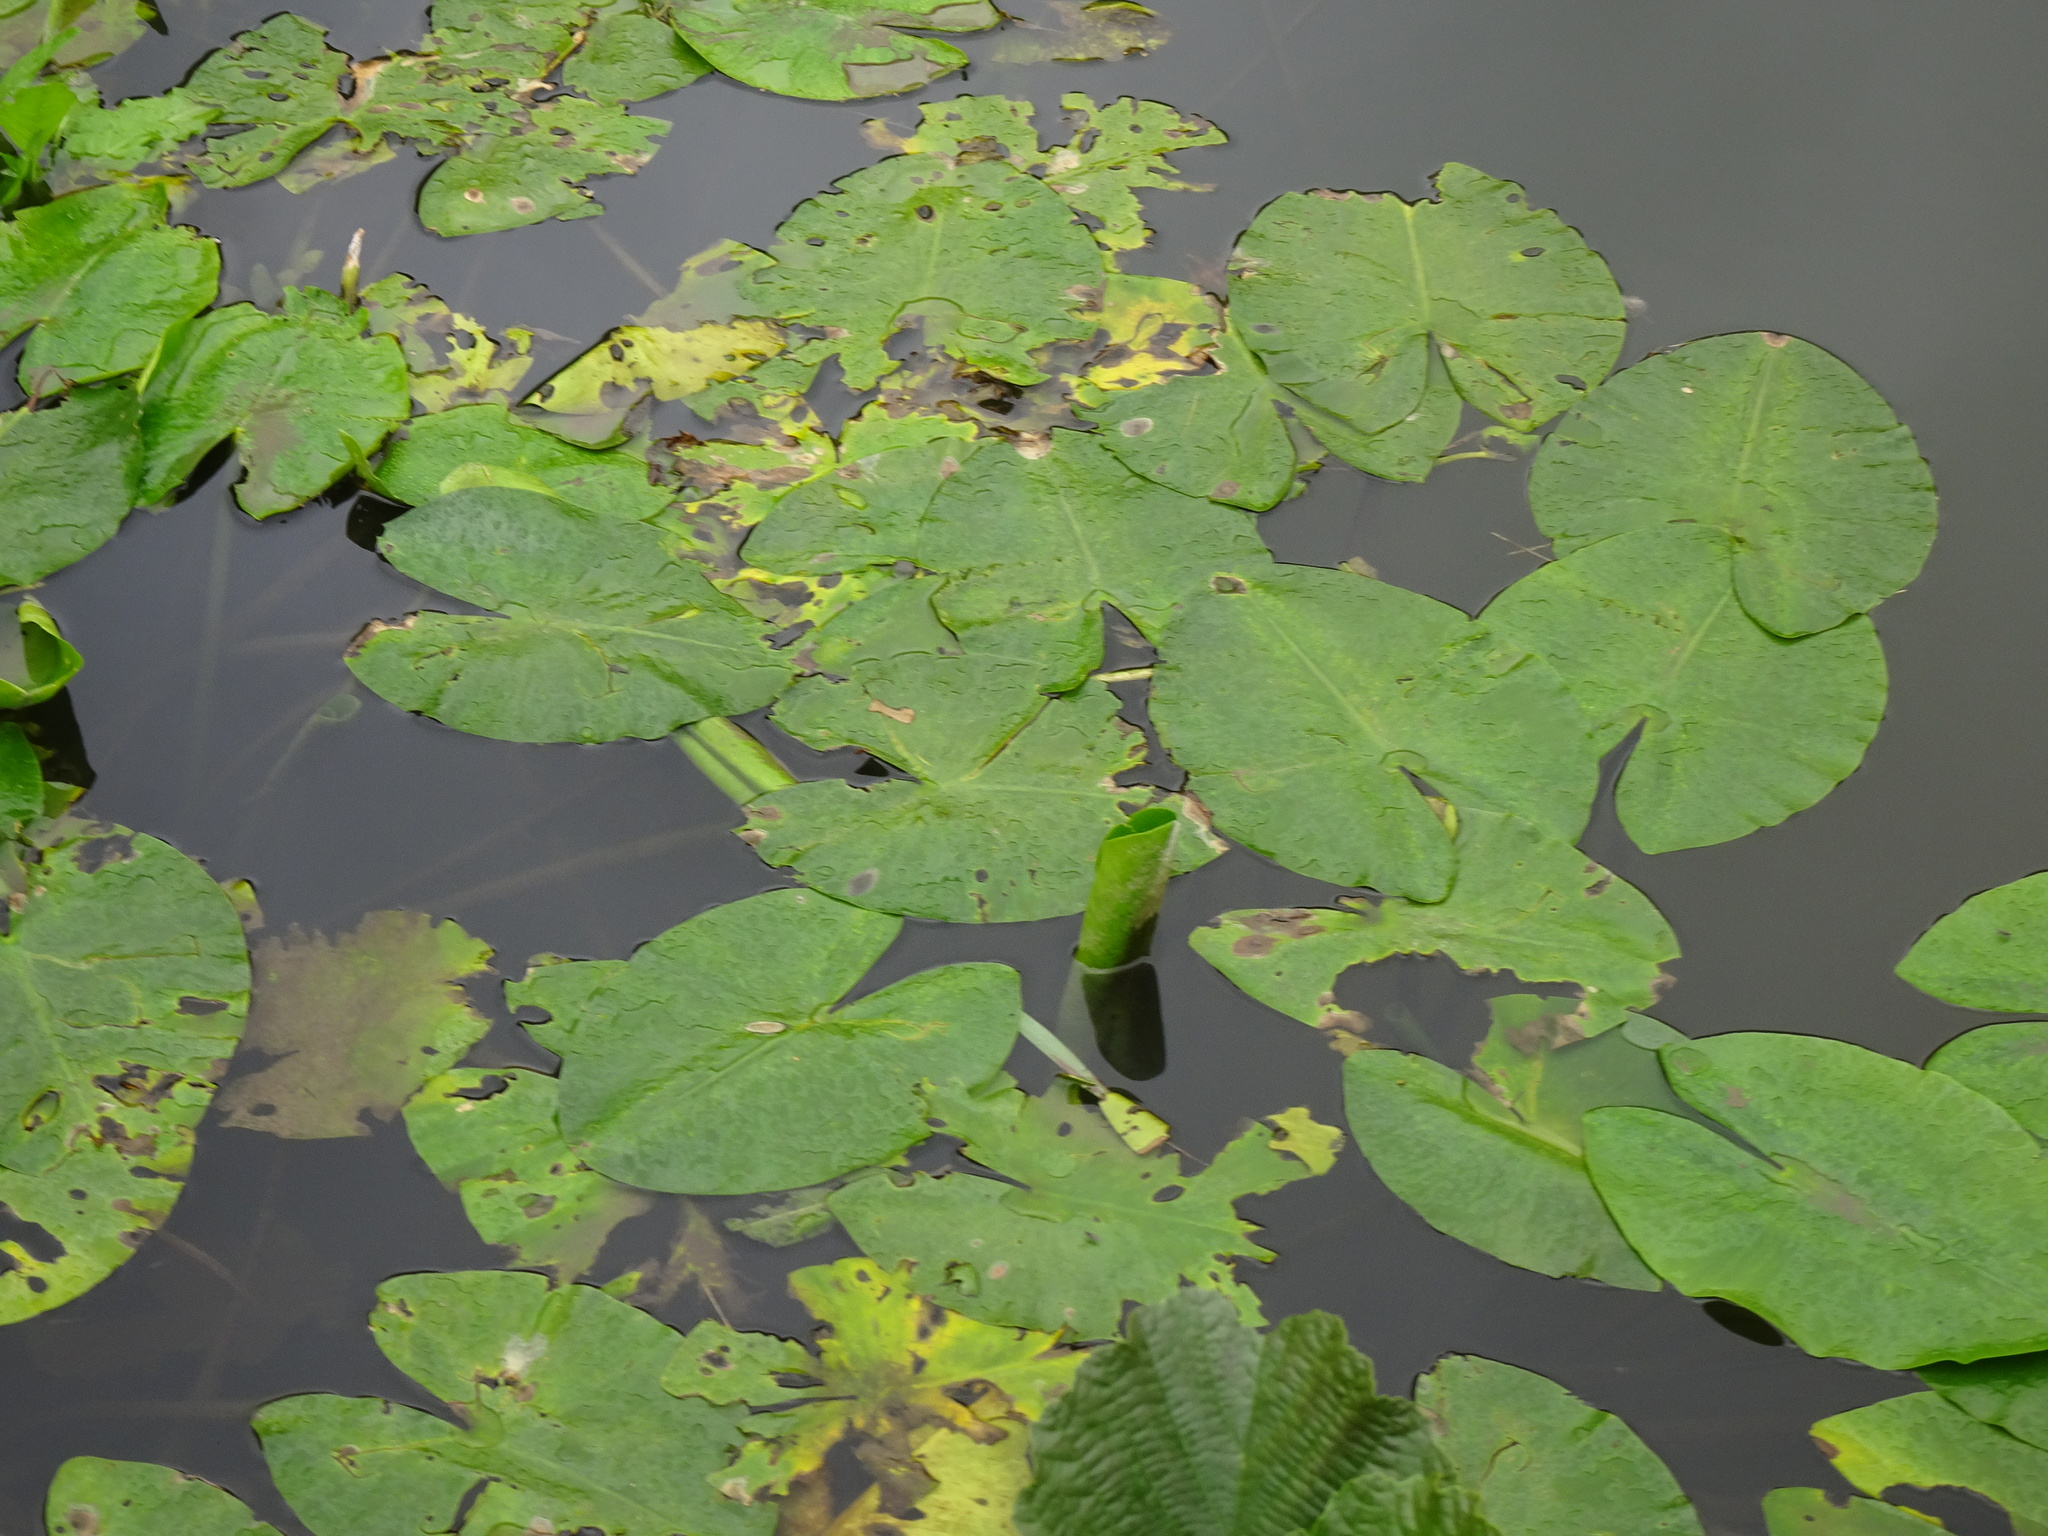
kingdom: Plantae
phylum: Tracheophyta
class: Magnoliopsida
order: Nymphaeales
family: Nymphaeaceae
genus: Nuphar
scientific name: Nuphar lutea
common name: Yellow water-lily
